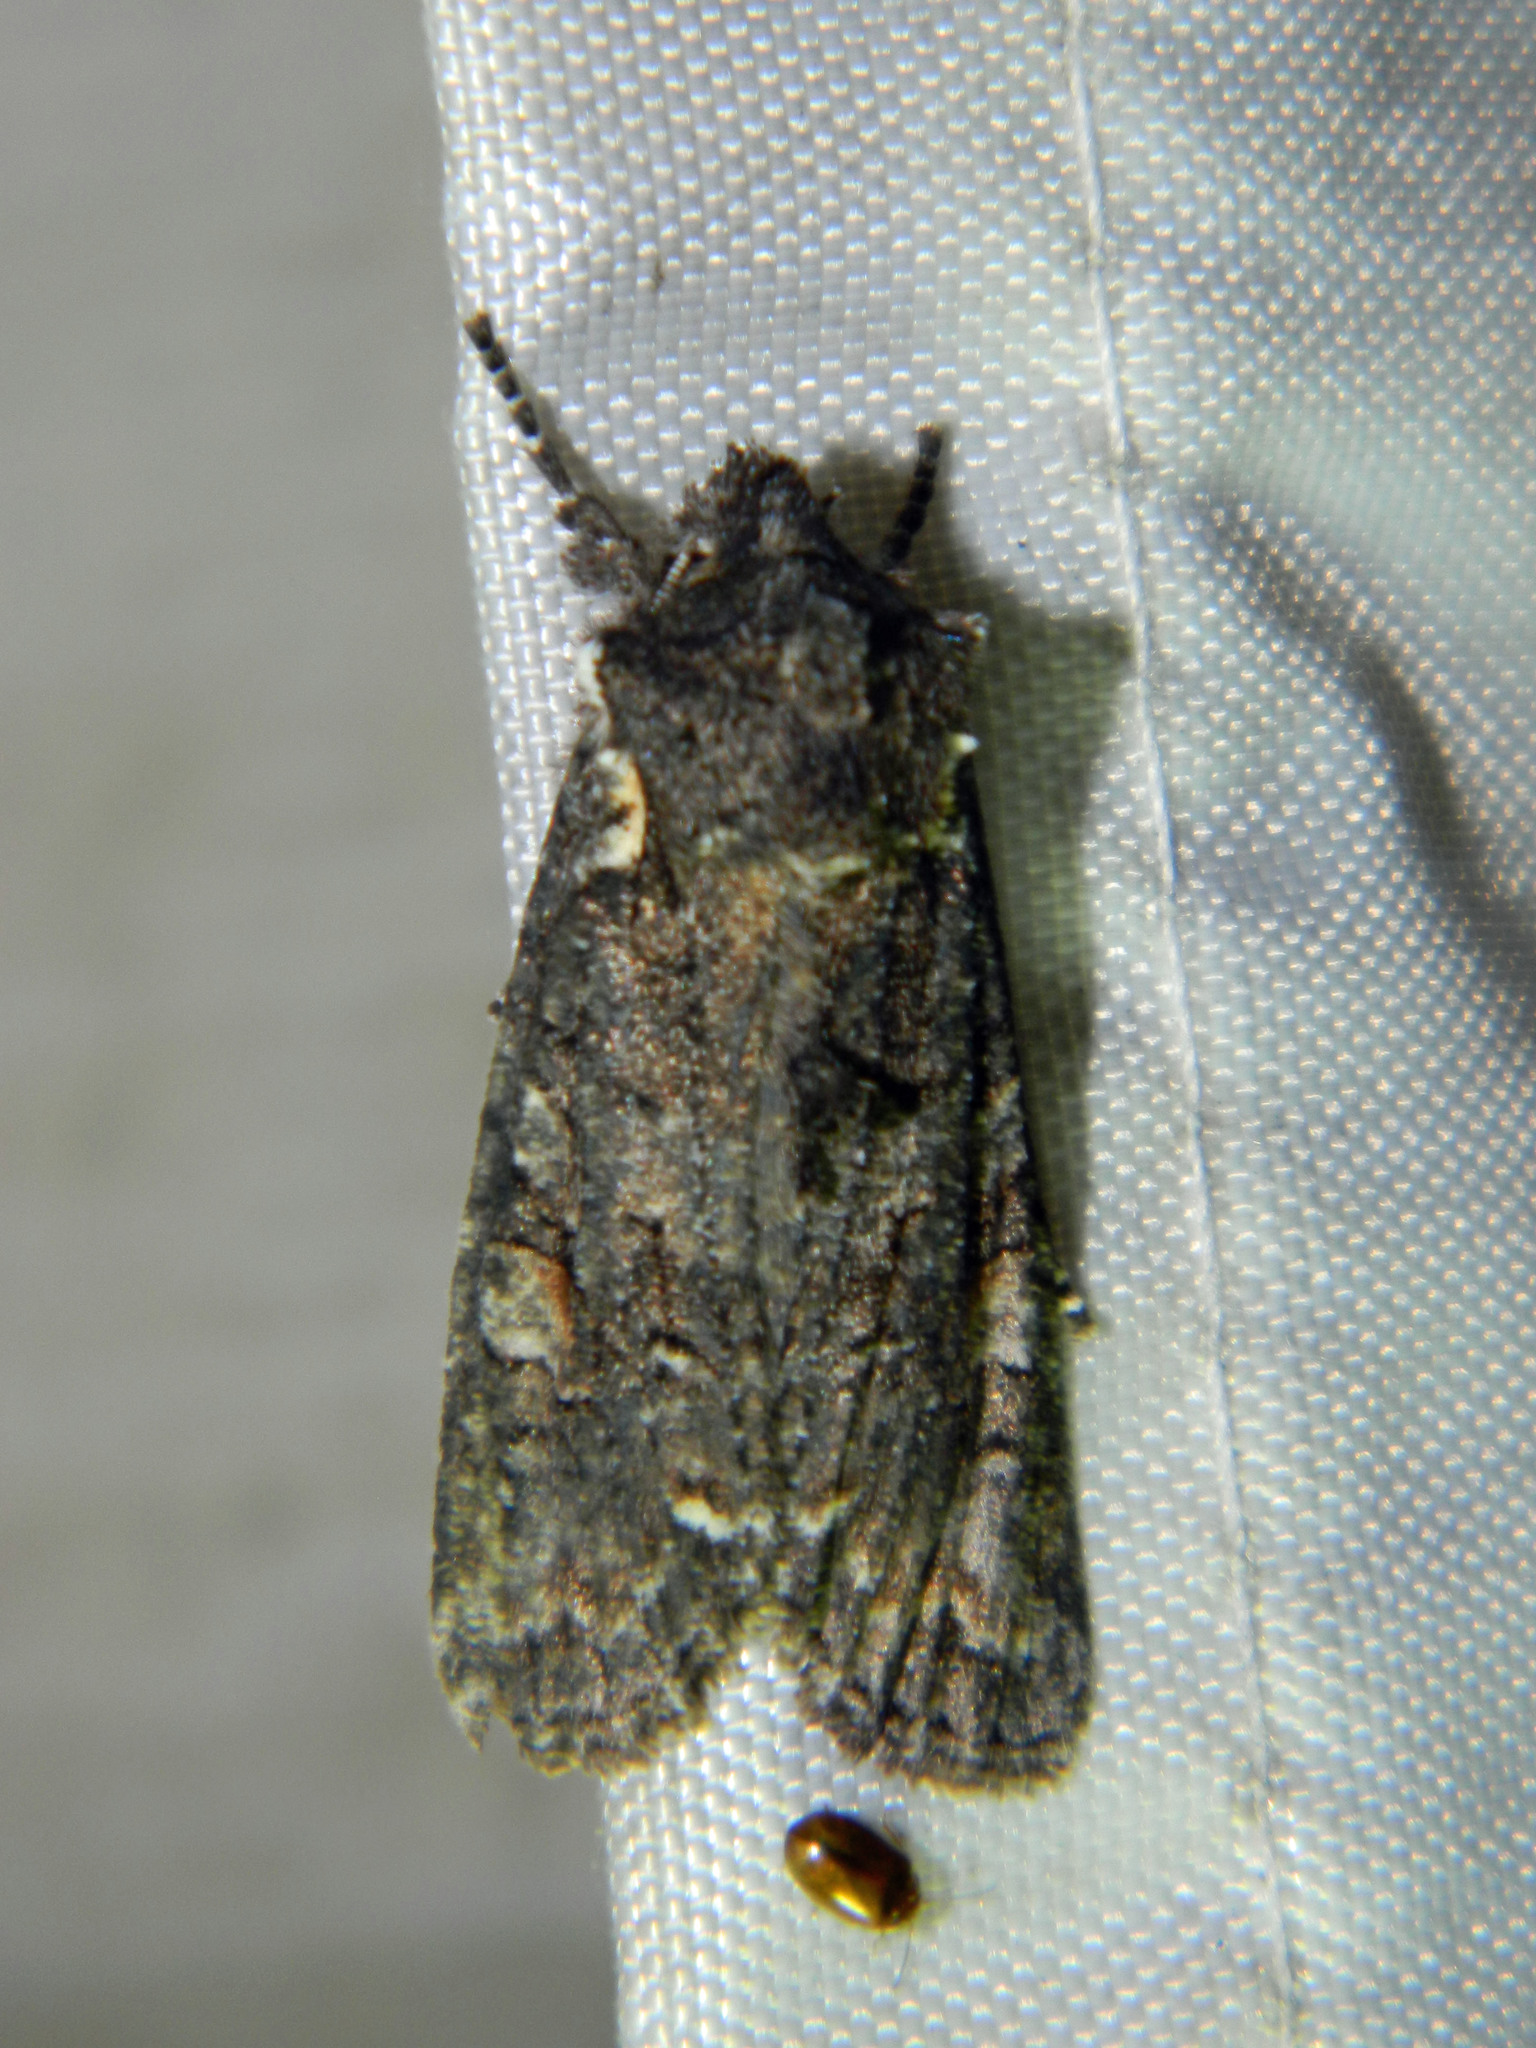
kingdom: Animalia
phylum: Arthropoda
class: Insecta
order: Lepidoptera
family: Noctuidae
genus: Lithophane
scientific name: Lithophane pexata
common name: Plush-naped pinion moth
